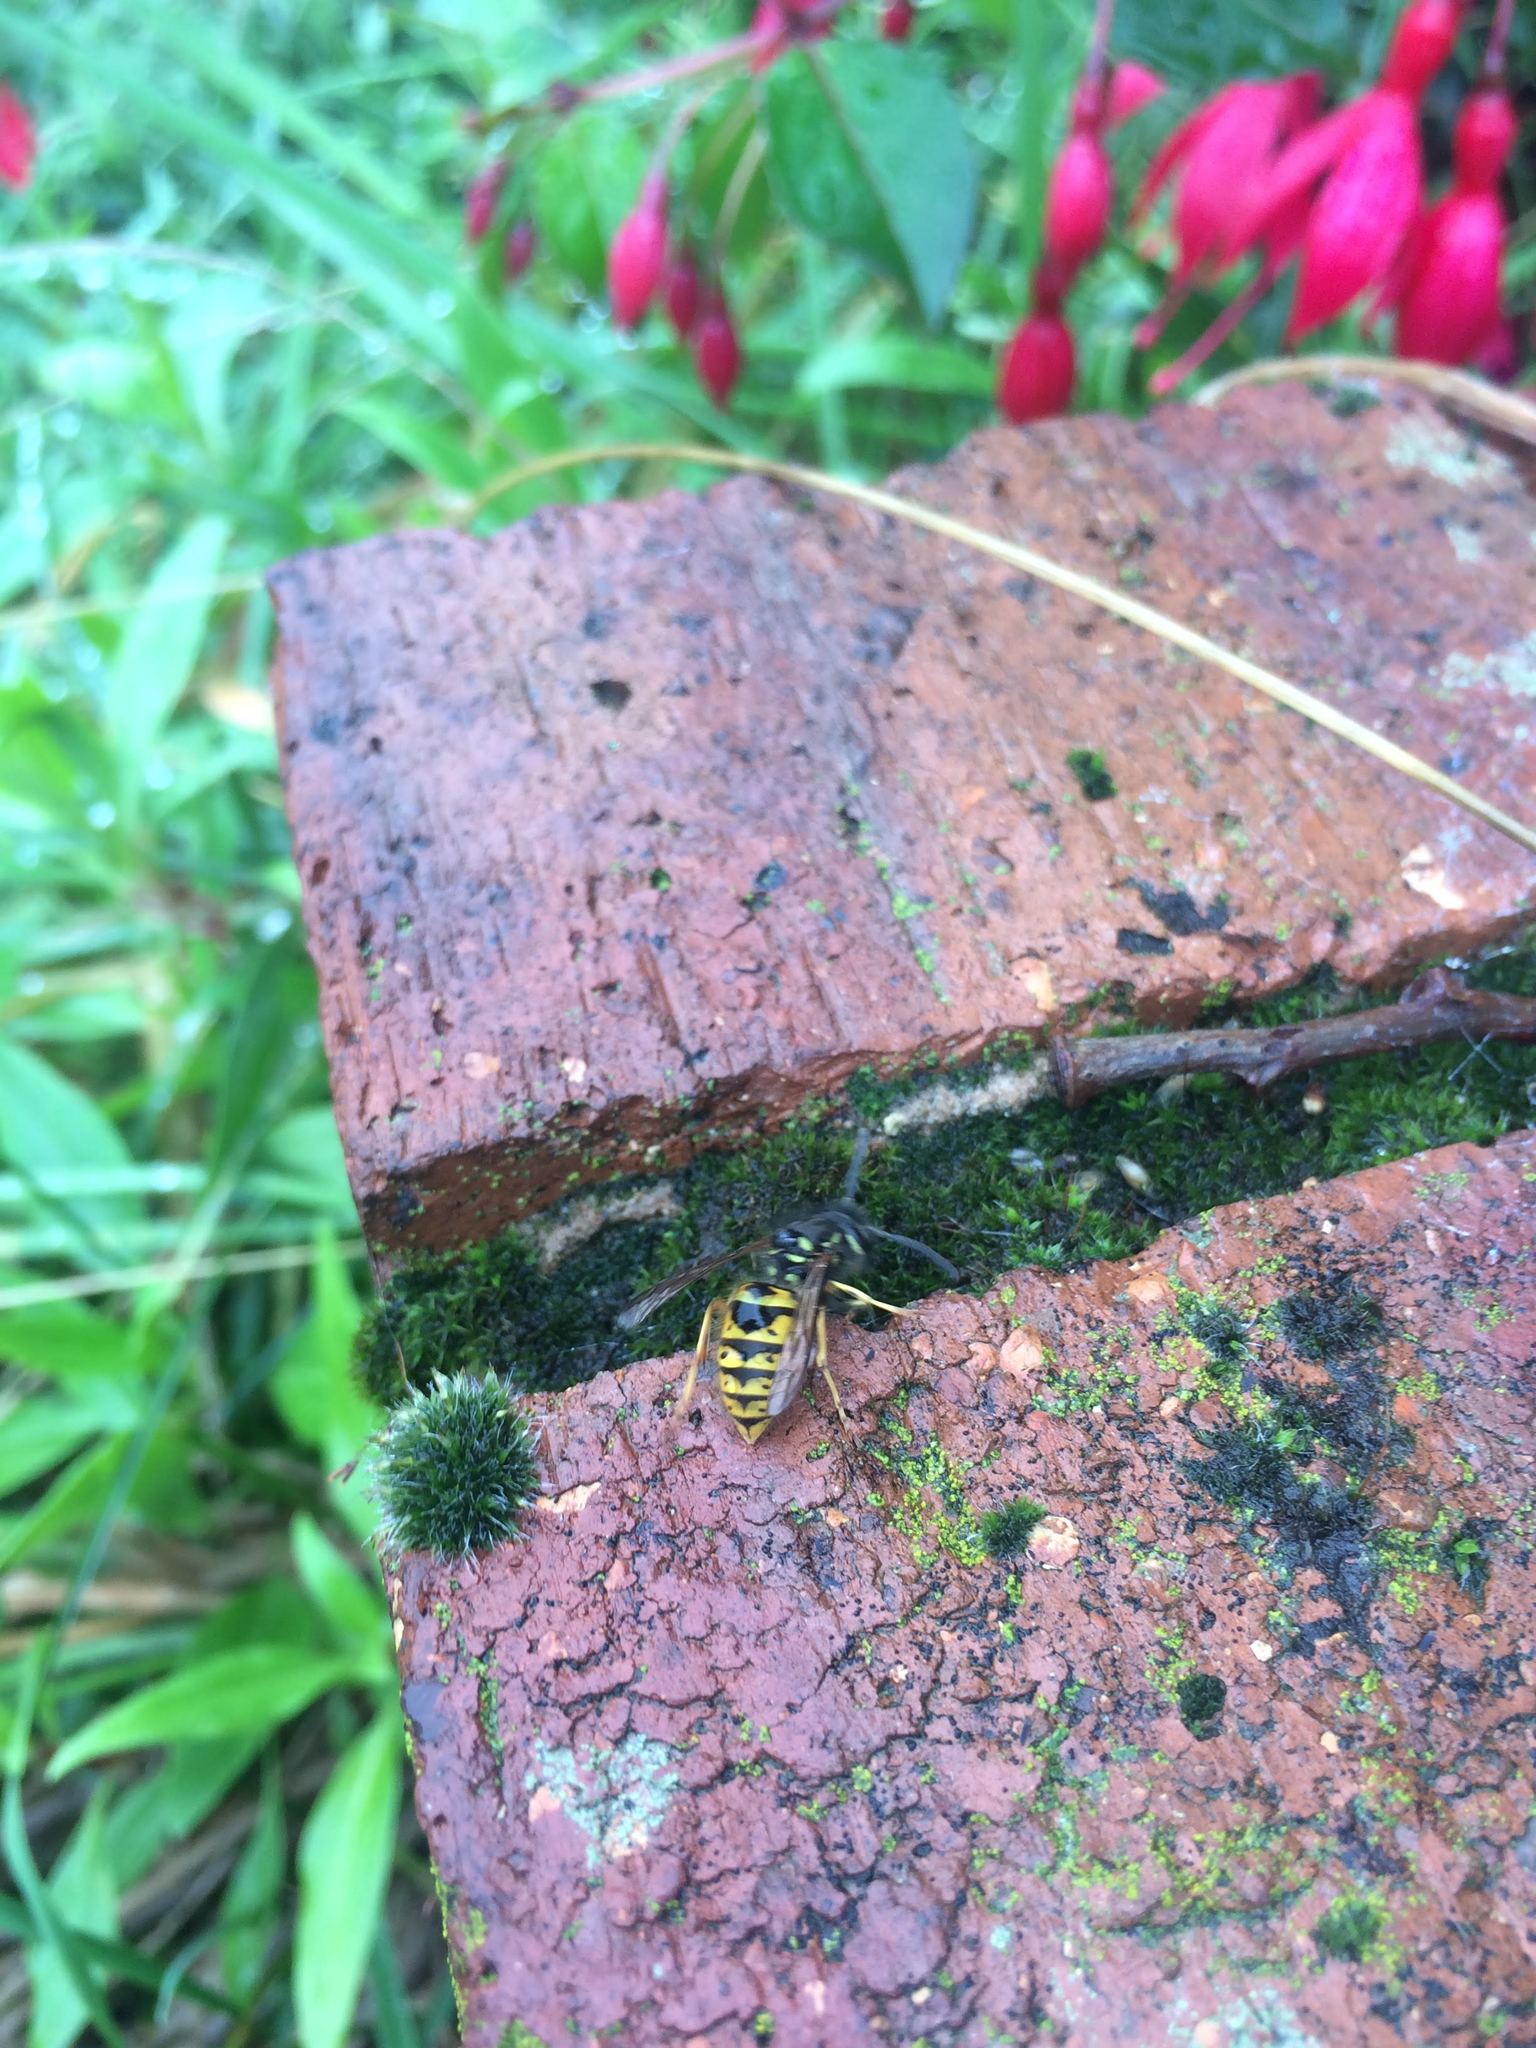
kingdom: Animalia
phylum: Arthropoda
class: Insecta
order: Hymenoptera
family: Vespidae
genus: Vespula
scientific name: Vespula vulgaris
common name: Common wasp
